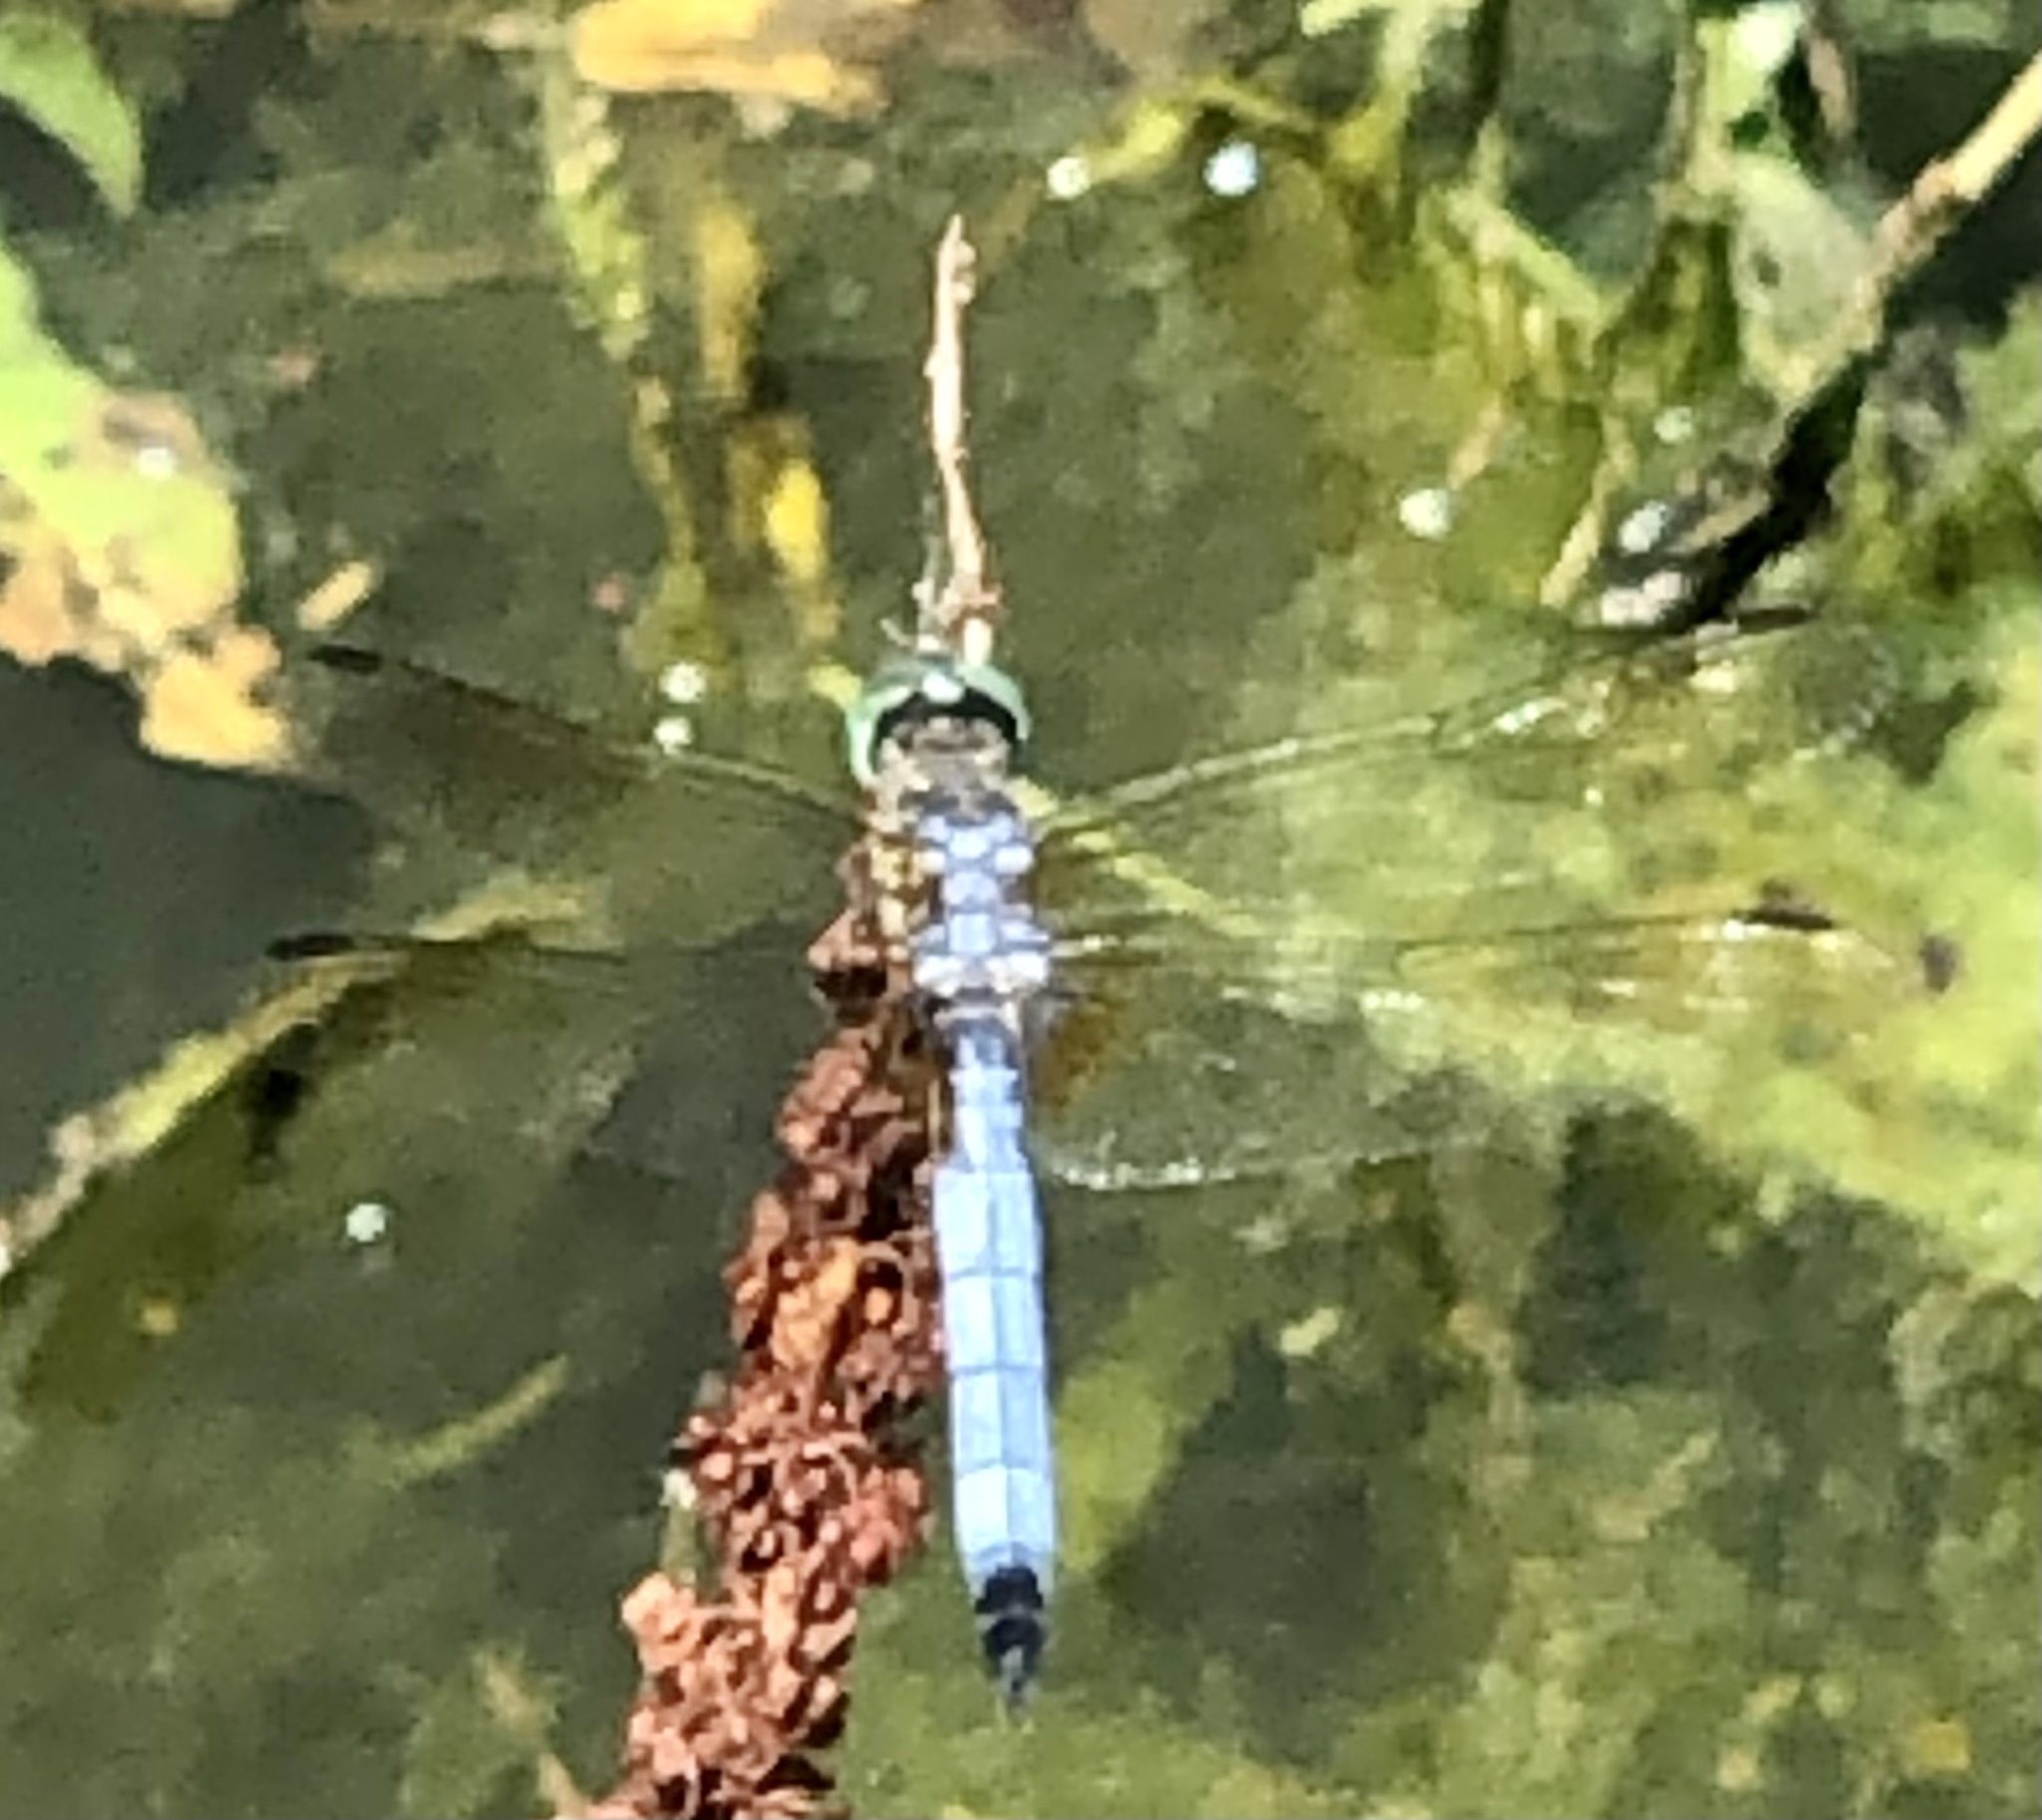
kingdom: Animalia
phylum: Arthropoda
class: Insecta
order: Odonata
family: Libellulidae
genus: Pachydiplax
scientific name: Pachydiplax longipennis
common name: Blue dasher
